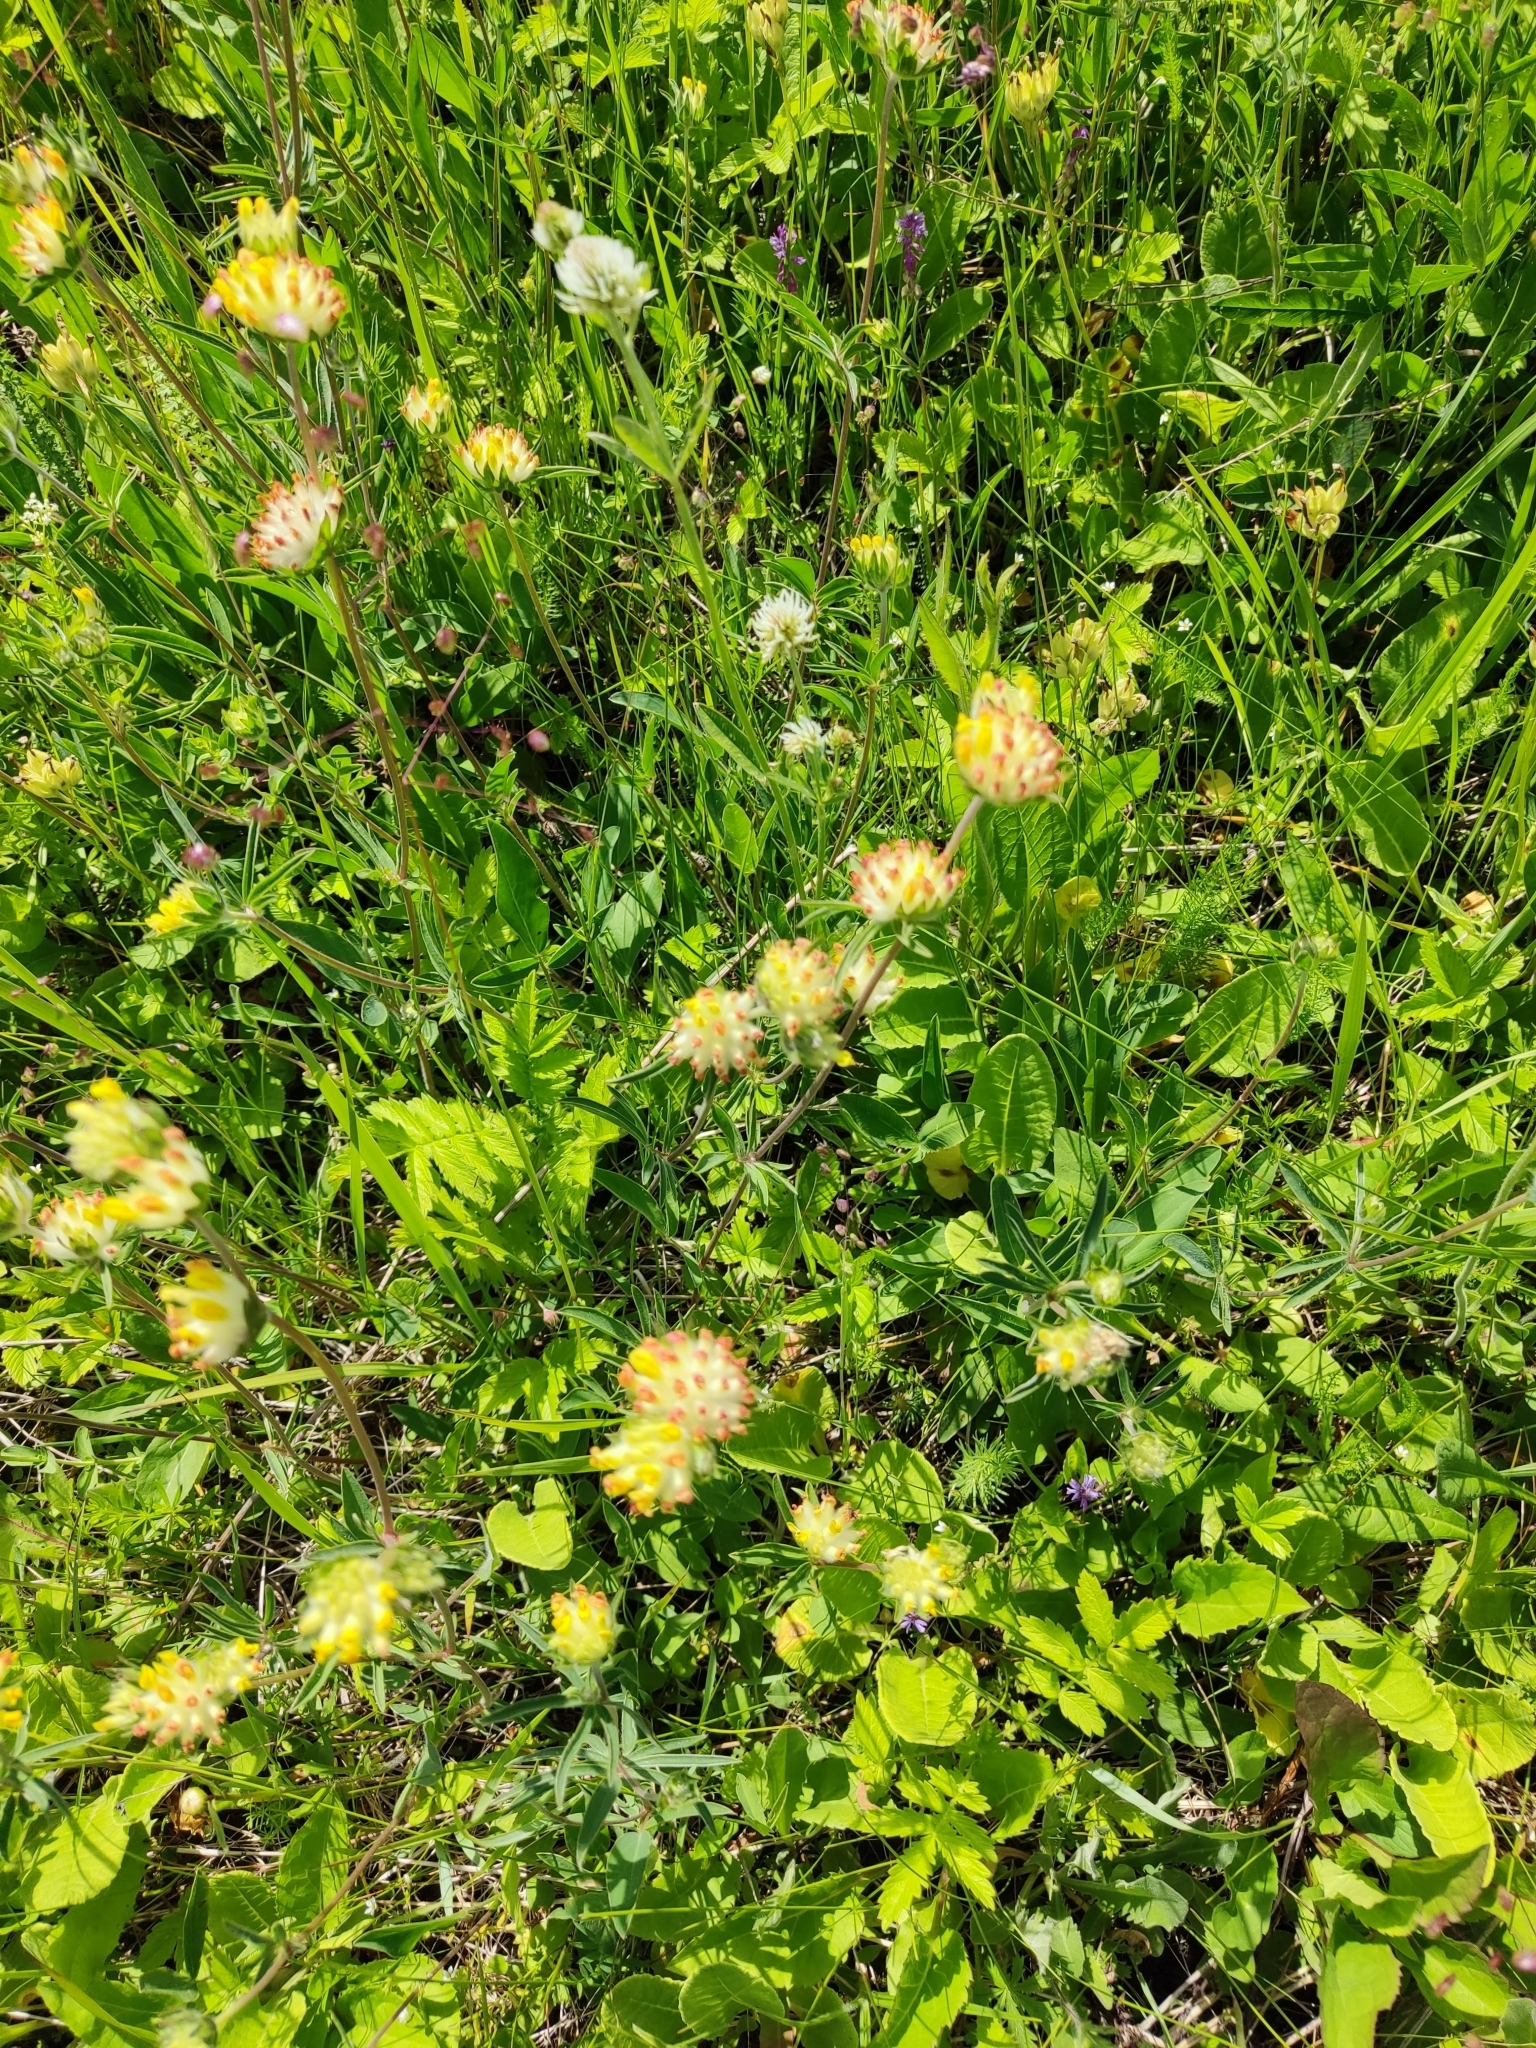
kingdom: Plantae
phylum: Tracheophyta
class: Magnoliopsida
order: Fabales
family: Fabaceae
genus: Anthyllis
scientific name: Anthyllis vulneraria
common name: Kidney vetch
